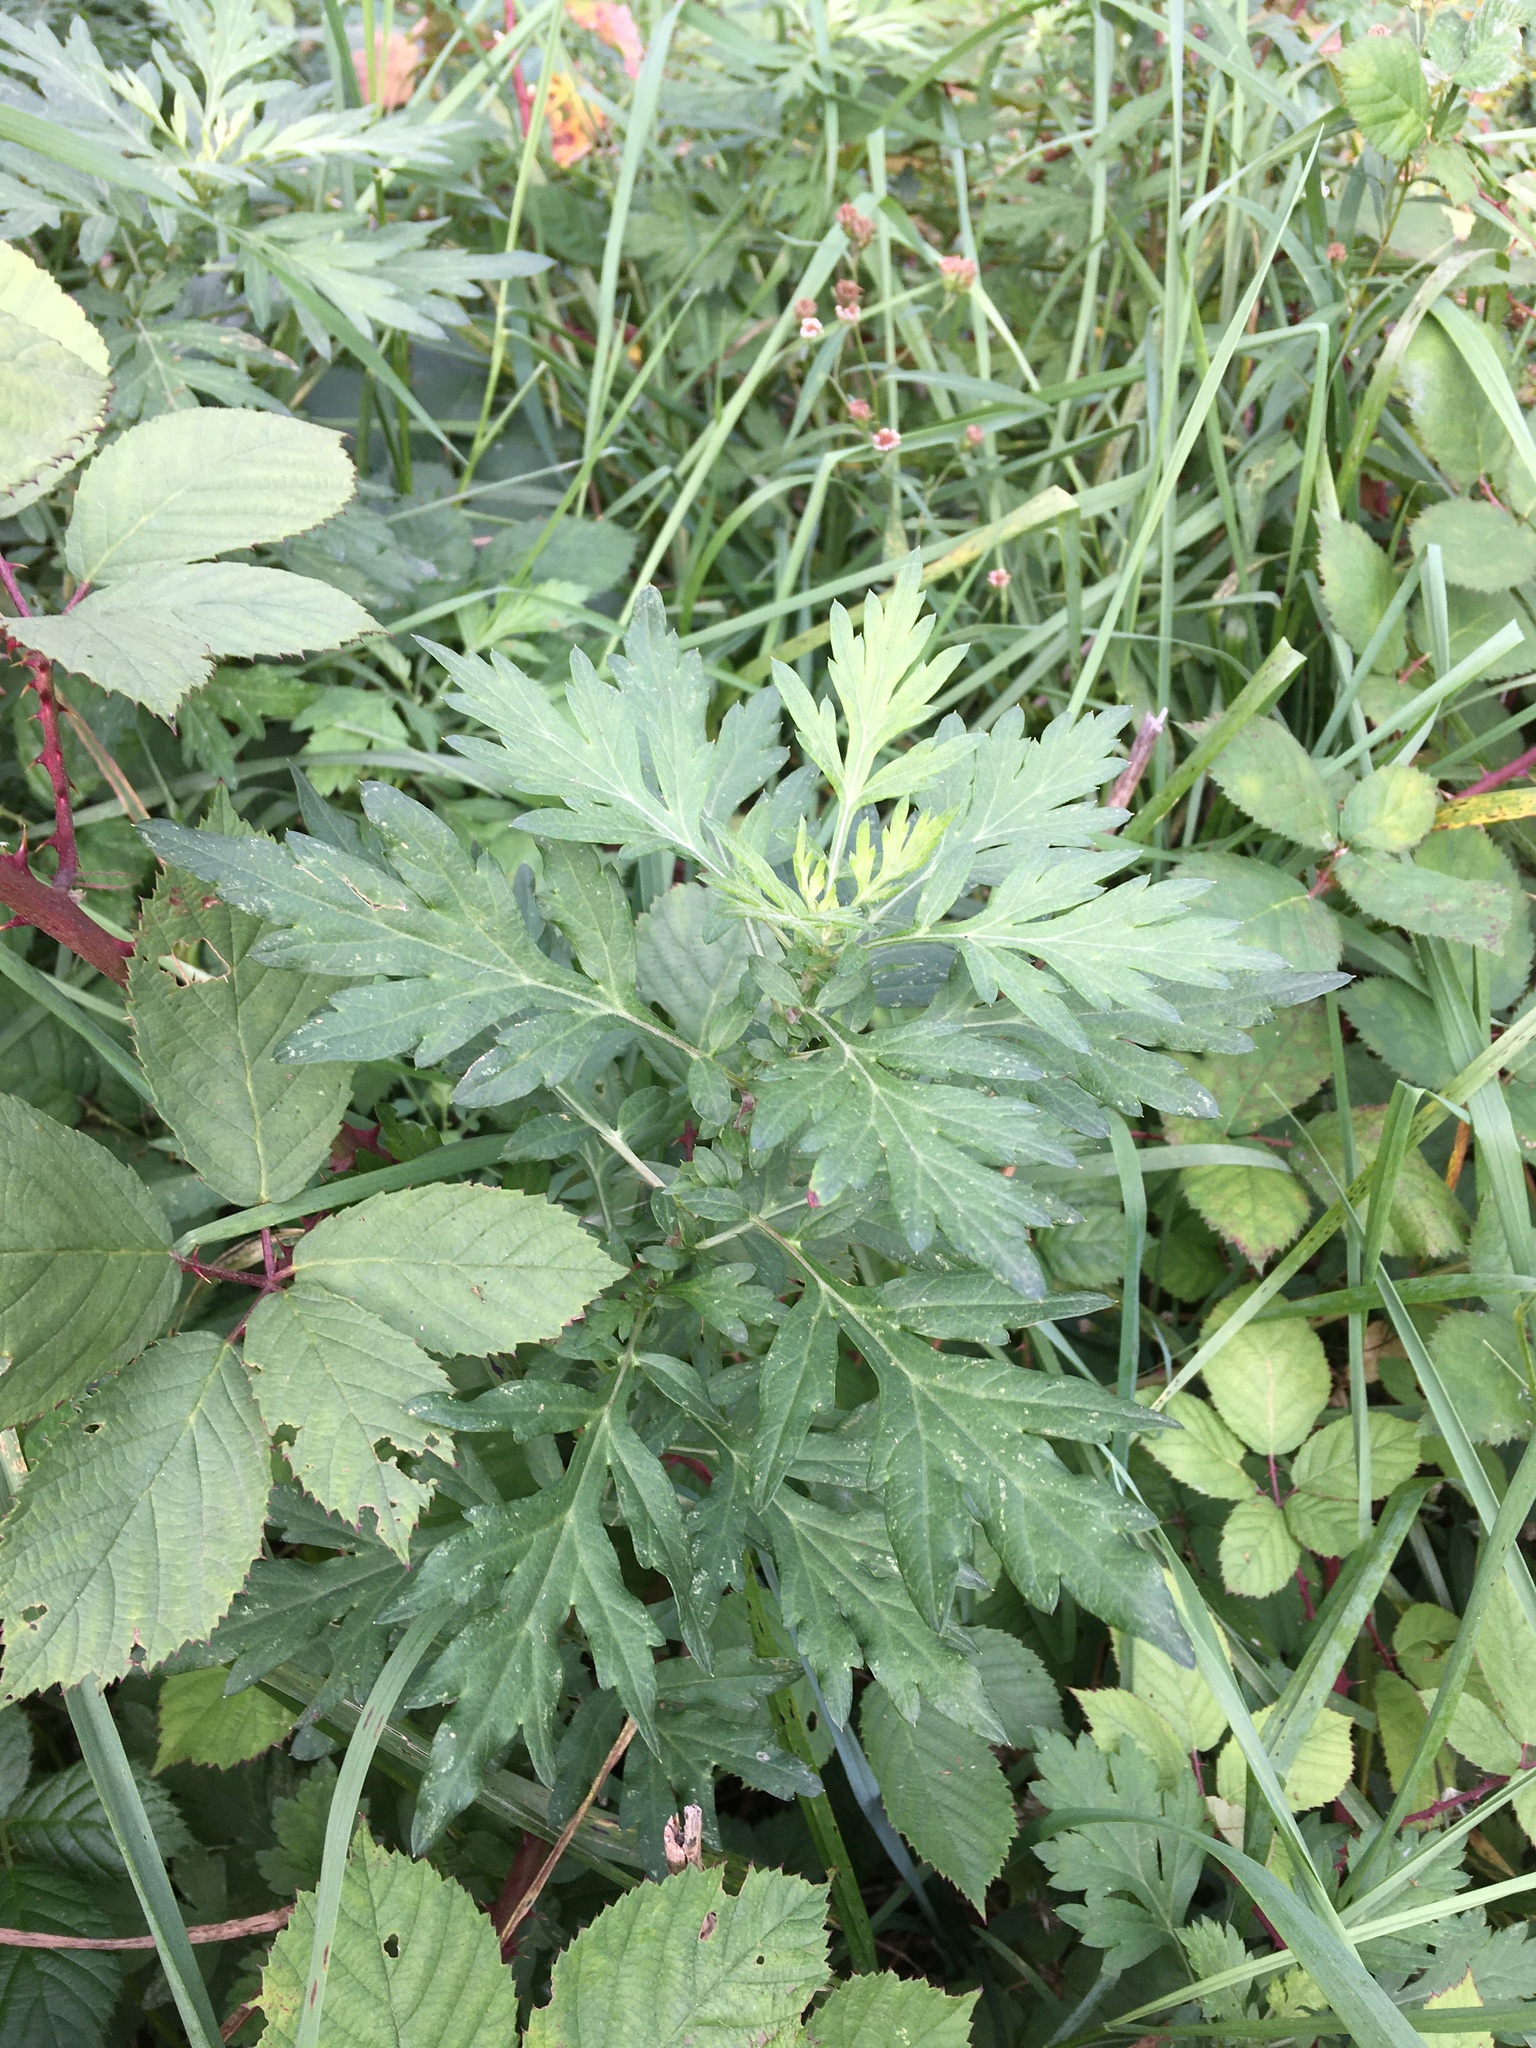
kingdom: Plantae
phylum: Tracheophyta
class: Magnoliopsida
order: Asterales
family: Asteraceae
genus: Artemisia
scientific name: Artemisia vulgaris
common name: Mugwort
